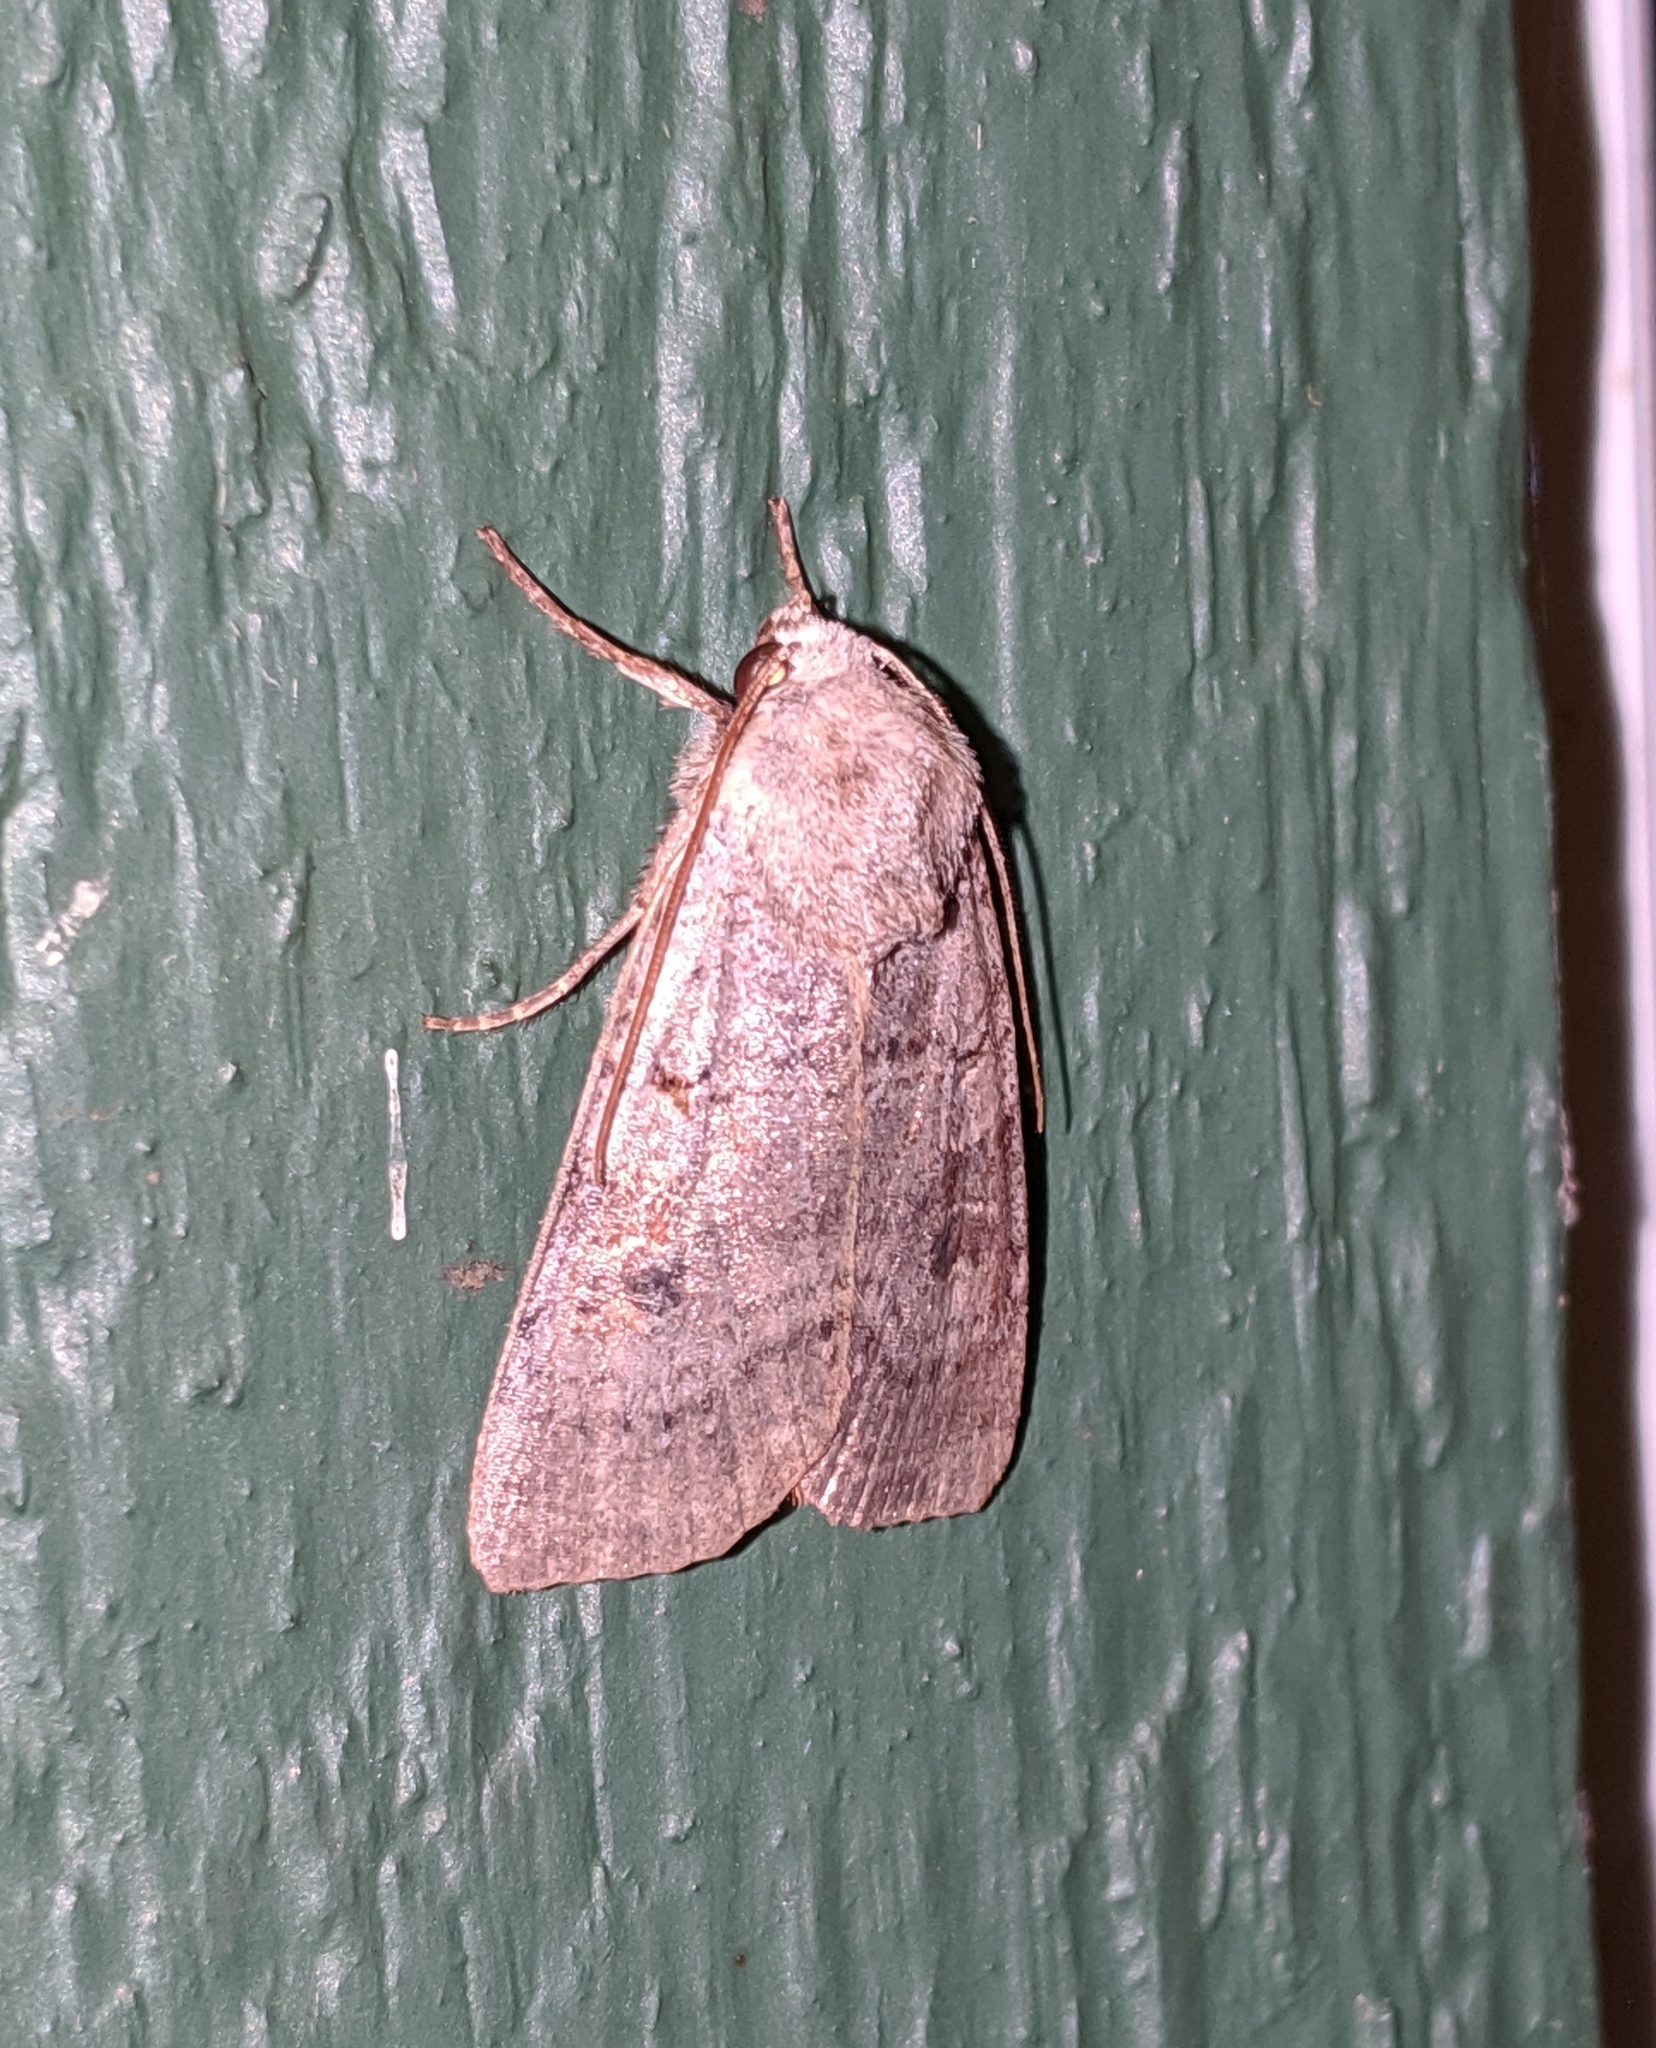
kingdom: Animalia
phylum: Arthropoda
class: Insecta
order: Lepidoptera
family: Noctuidae
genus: Xestia
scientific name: Xestia smithii
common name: Smith's dart
